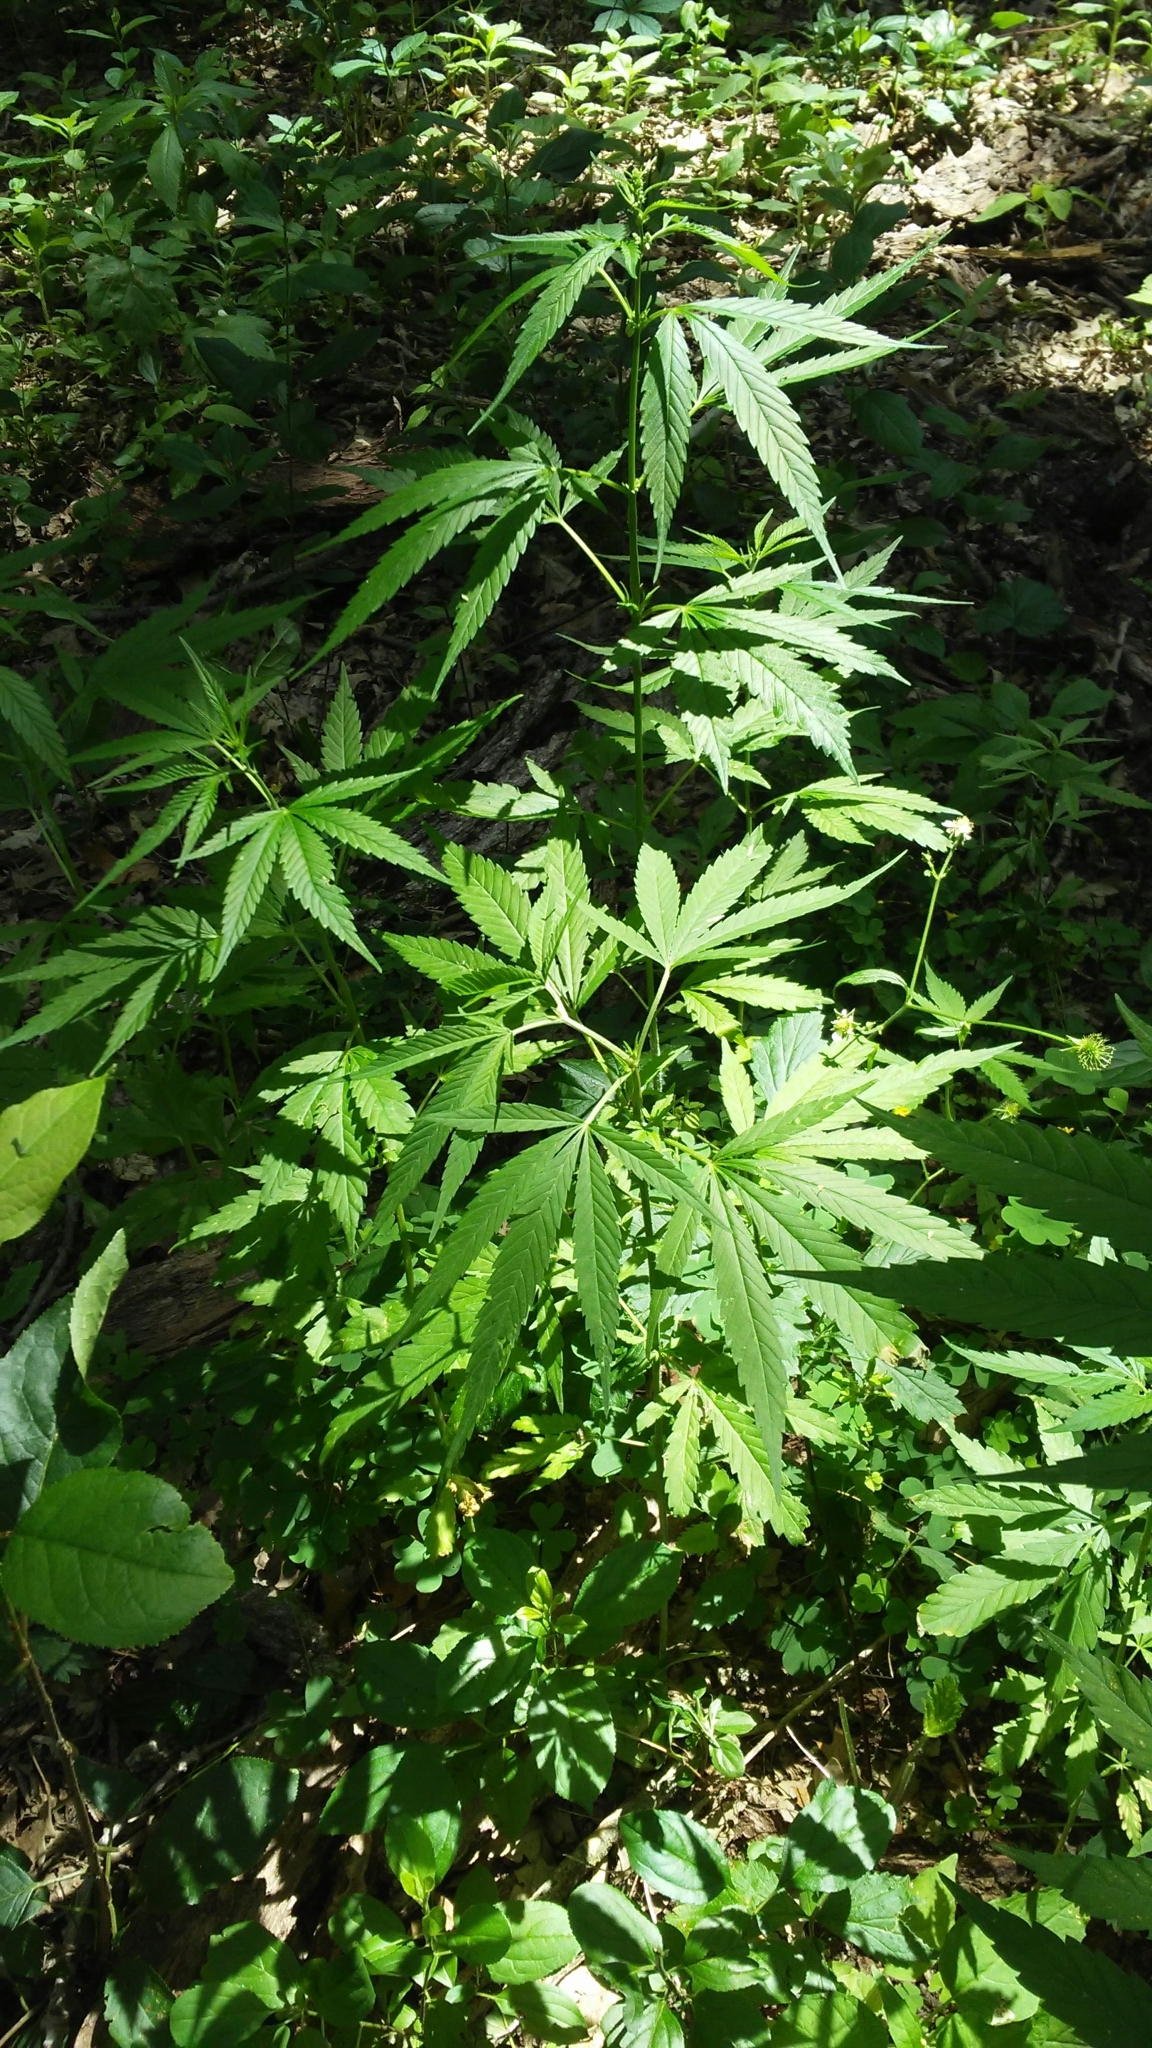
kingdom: Plantae
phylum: Tracheophyta
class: Magnoliopsida
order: Rosales
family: Cannabaceae
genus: Cannabis
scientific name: Cannabis sativa
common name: Hemp
